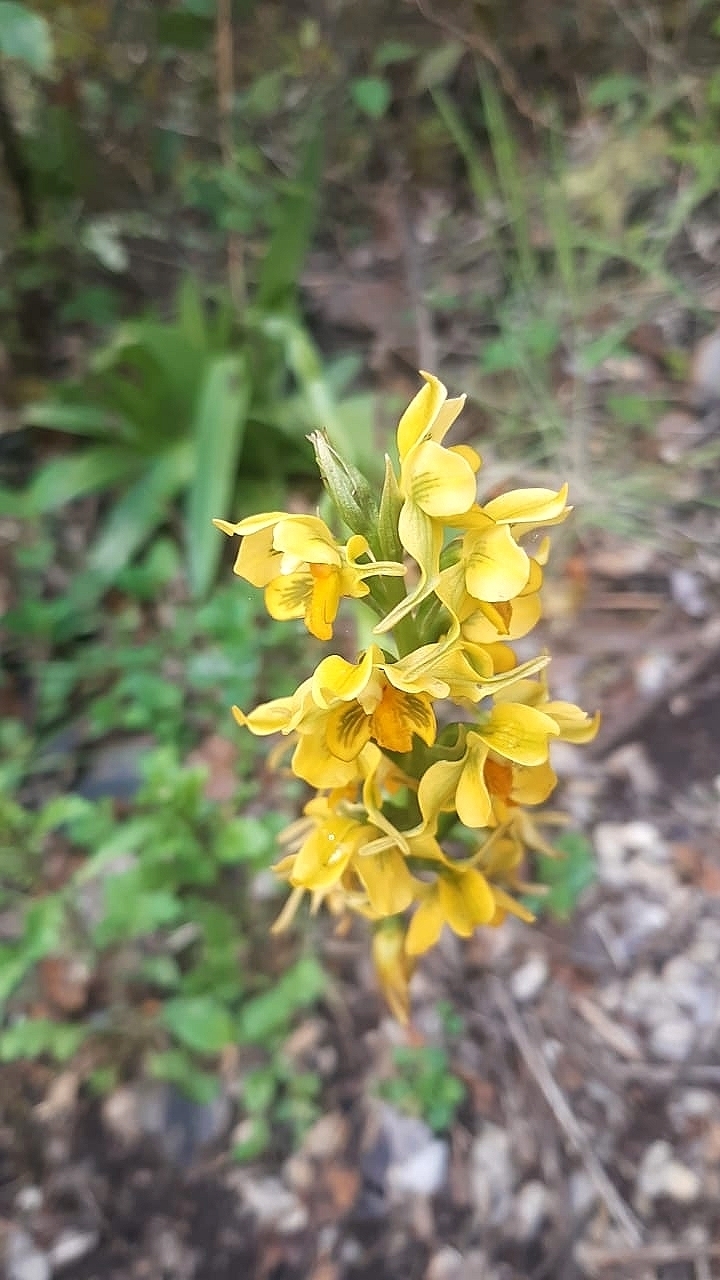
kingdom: Plantae
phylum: Tracheophyta
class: Liliopsida
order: Asparagales
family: Orchidaceae
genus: Gavilea
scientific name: Gavilea odoratissima
